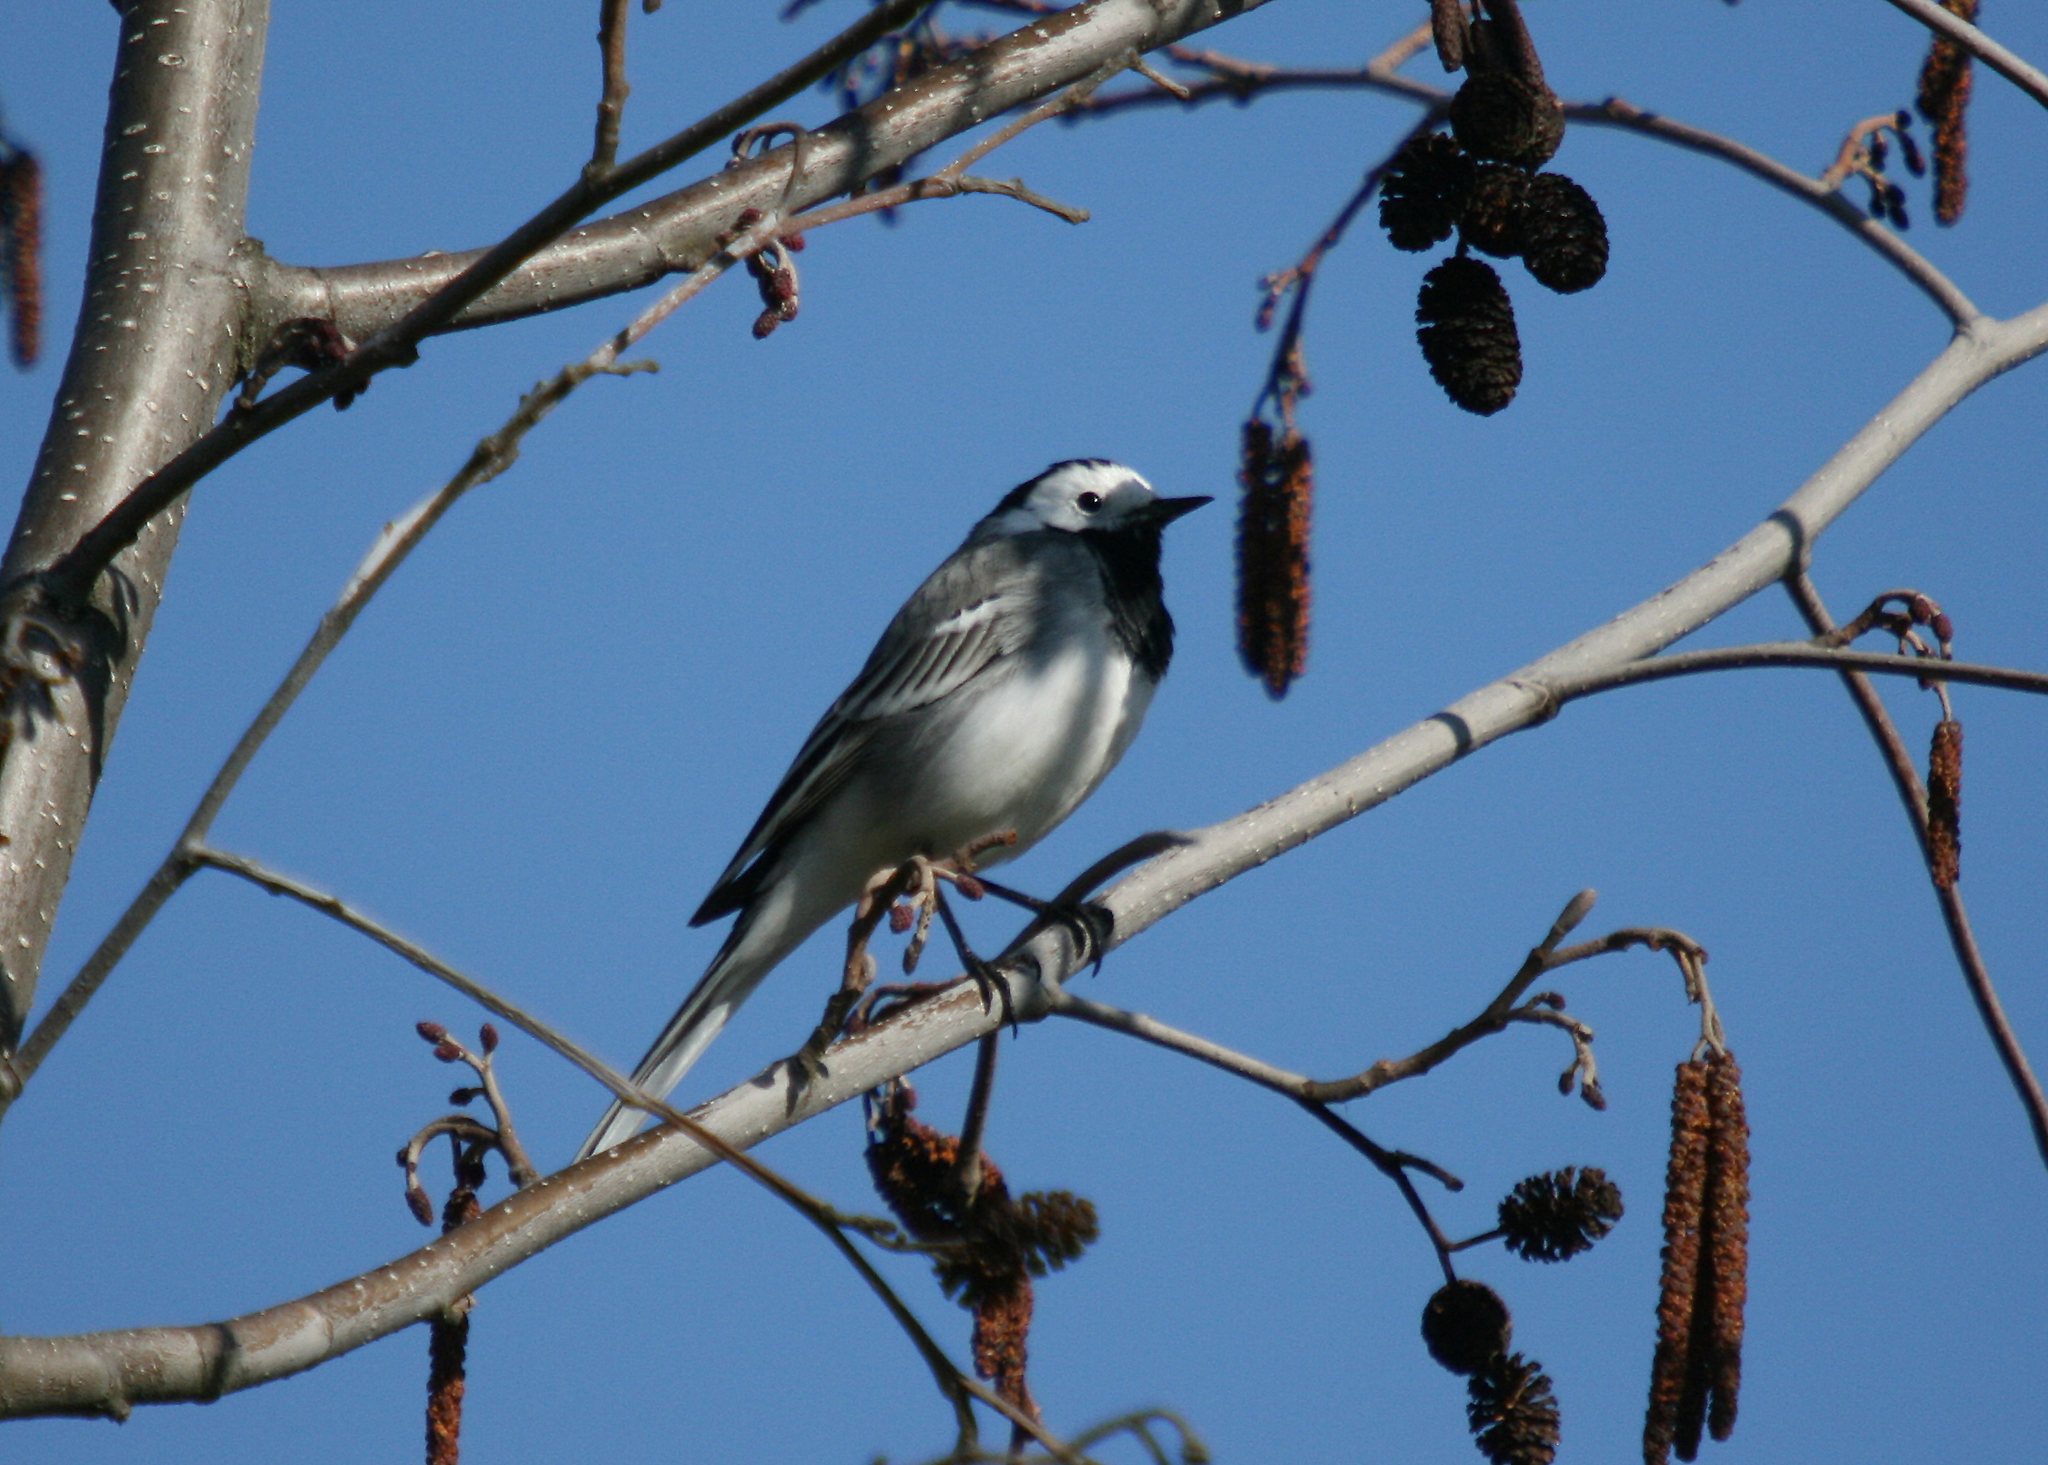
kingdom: Animalia
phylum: Chordata
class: Aves
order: Passeriformes
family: Motacillidae
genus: Motacilla
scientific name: Motacilla alba
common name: White wagtail
